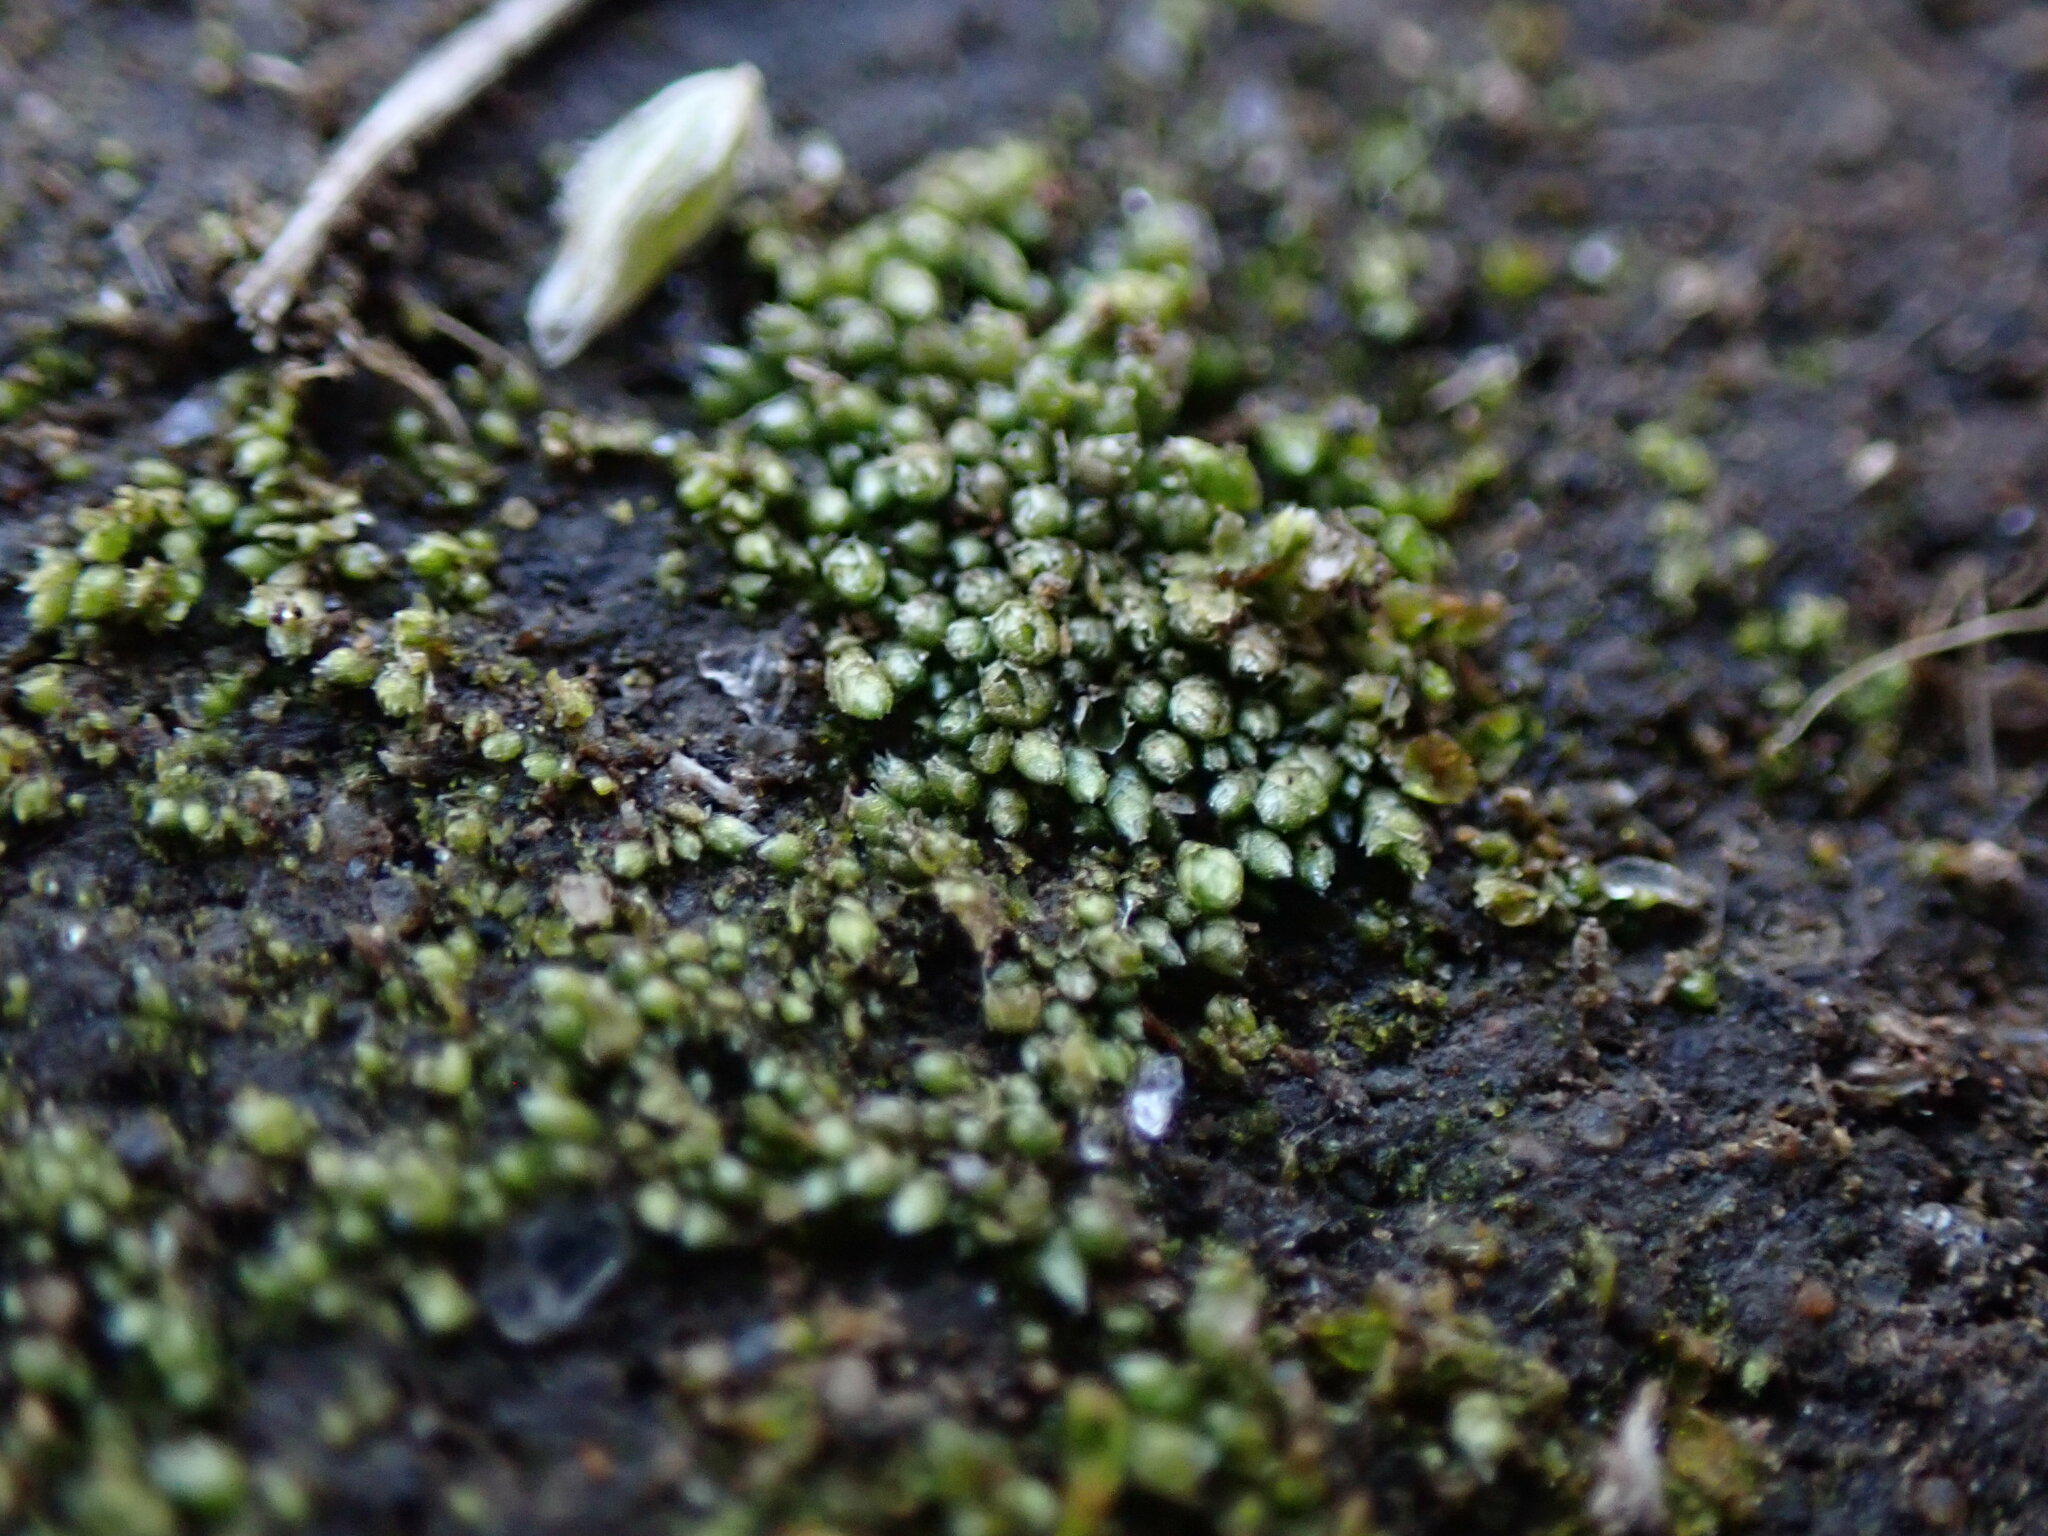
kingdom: Plantae
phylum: Bryophyta
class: Bryopsida
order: Bryales
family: Bryaceae
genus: Bryum
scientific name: Bryum argenteum
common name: Silver-moss
